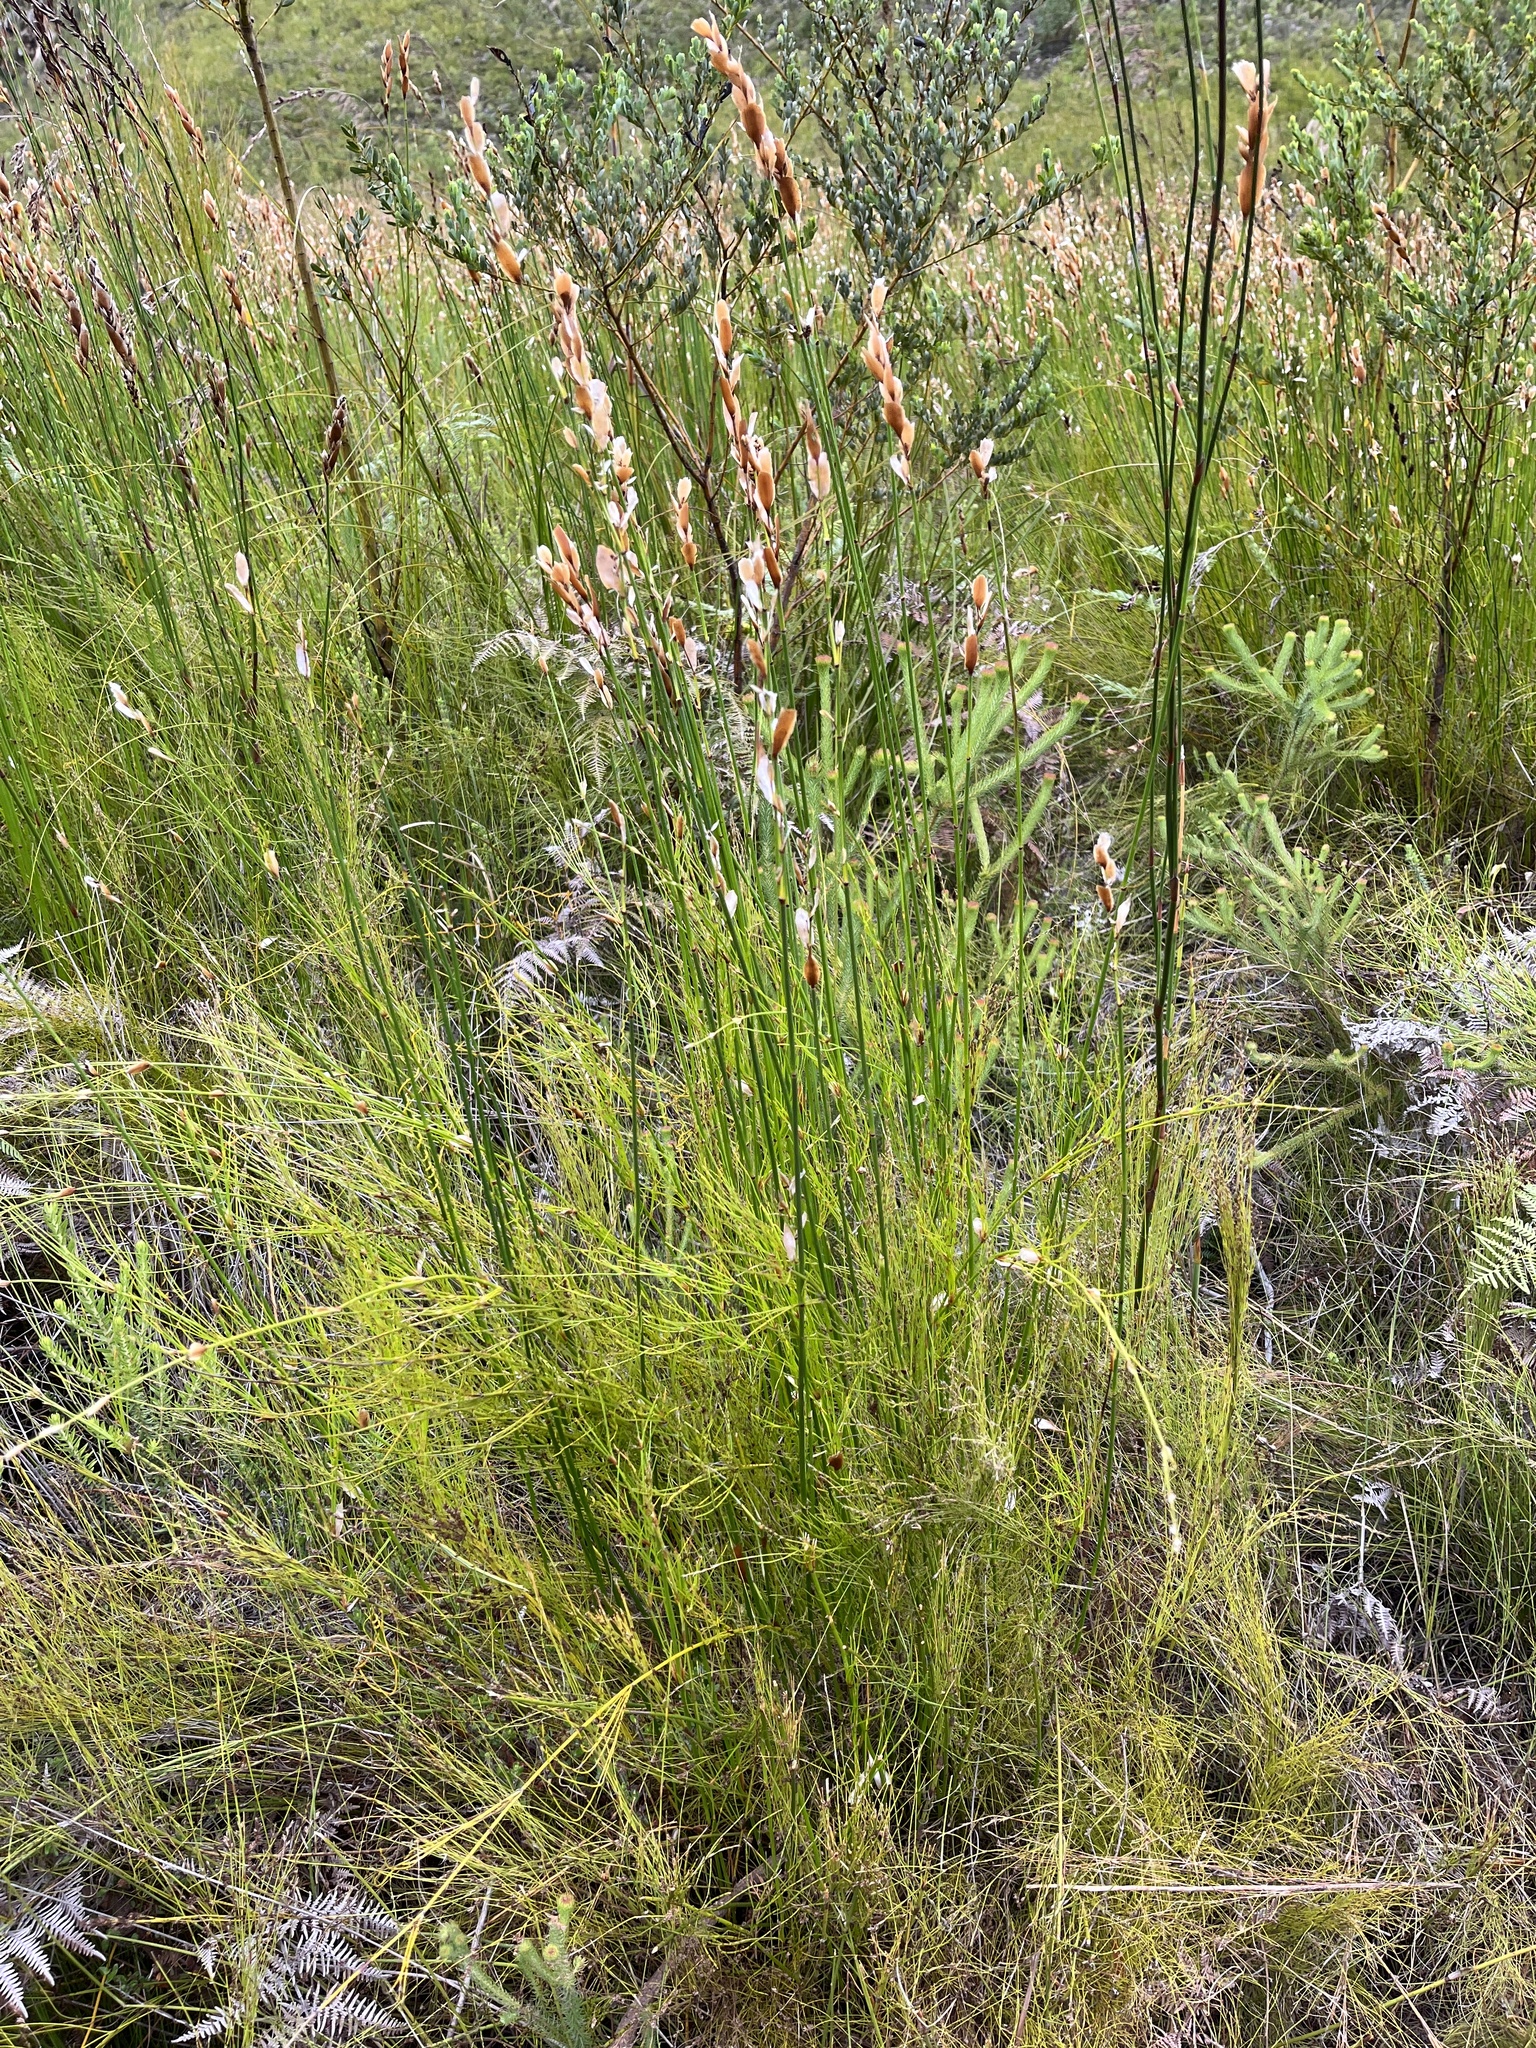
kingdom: Plantae
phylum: Tracheophyta
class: Liliopsida
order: Poales
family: Restionaceae
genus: Elegia
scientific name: Elegia equisetacea
